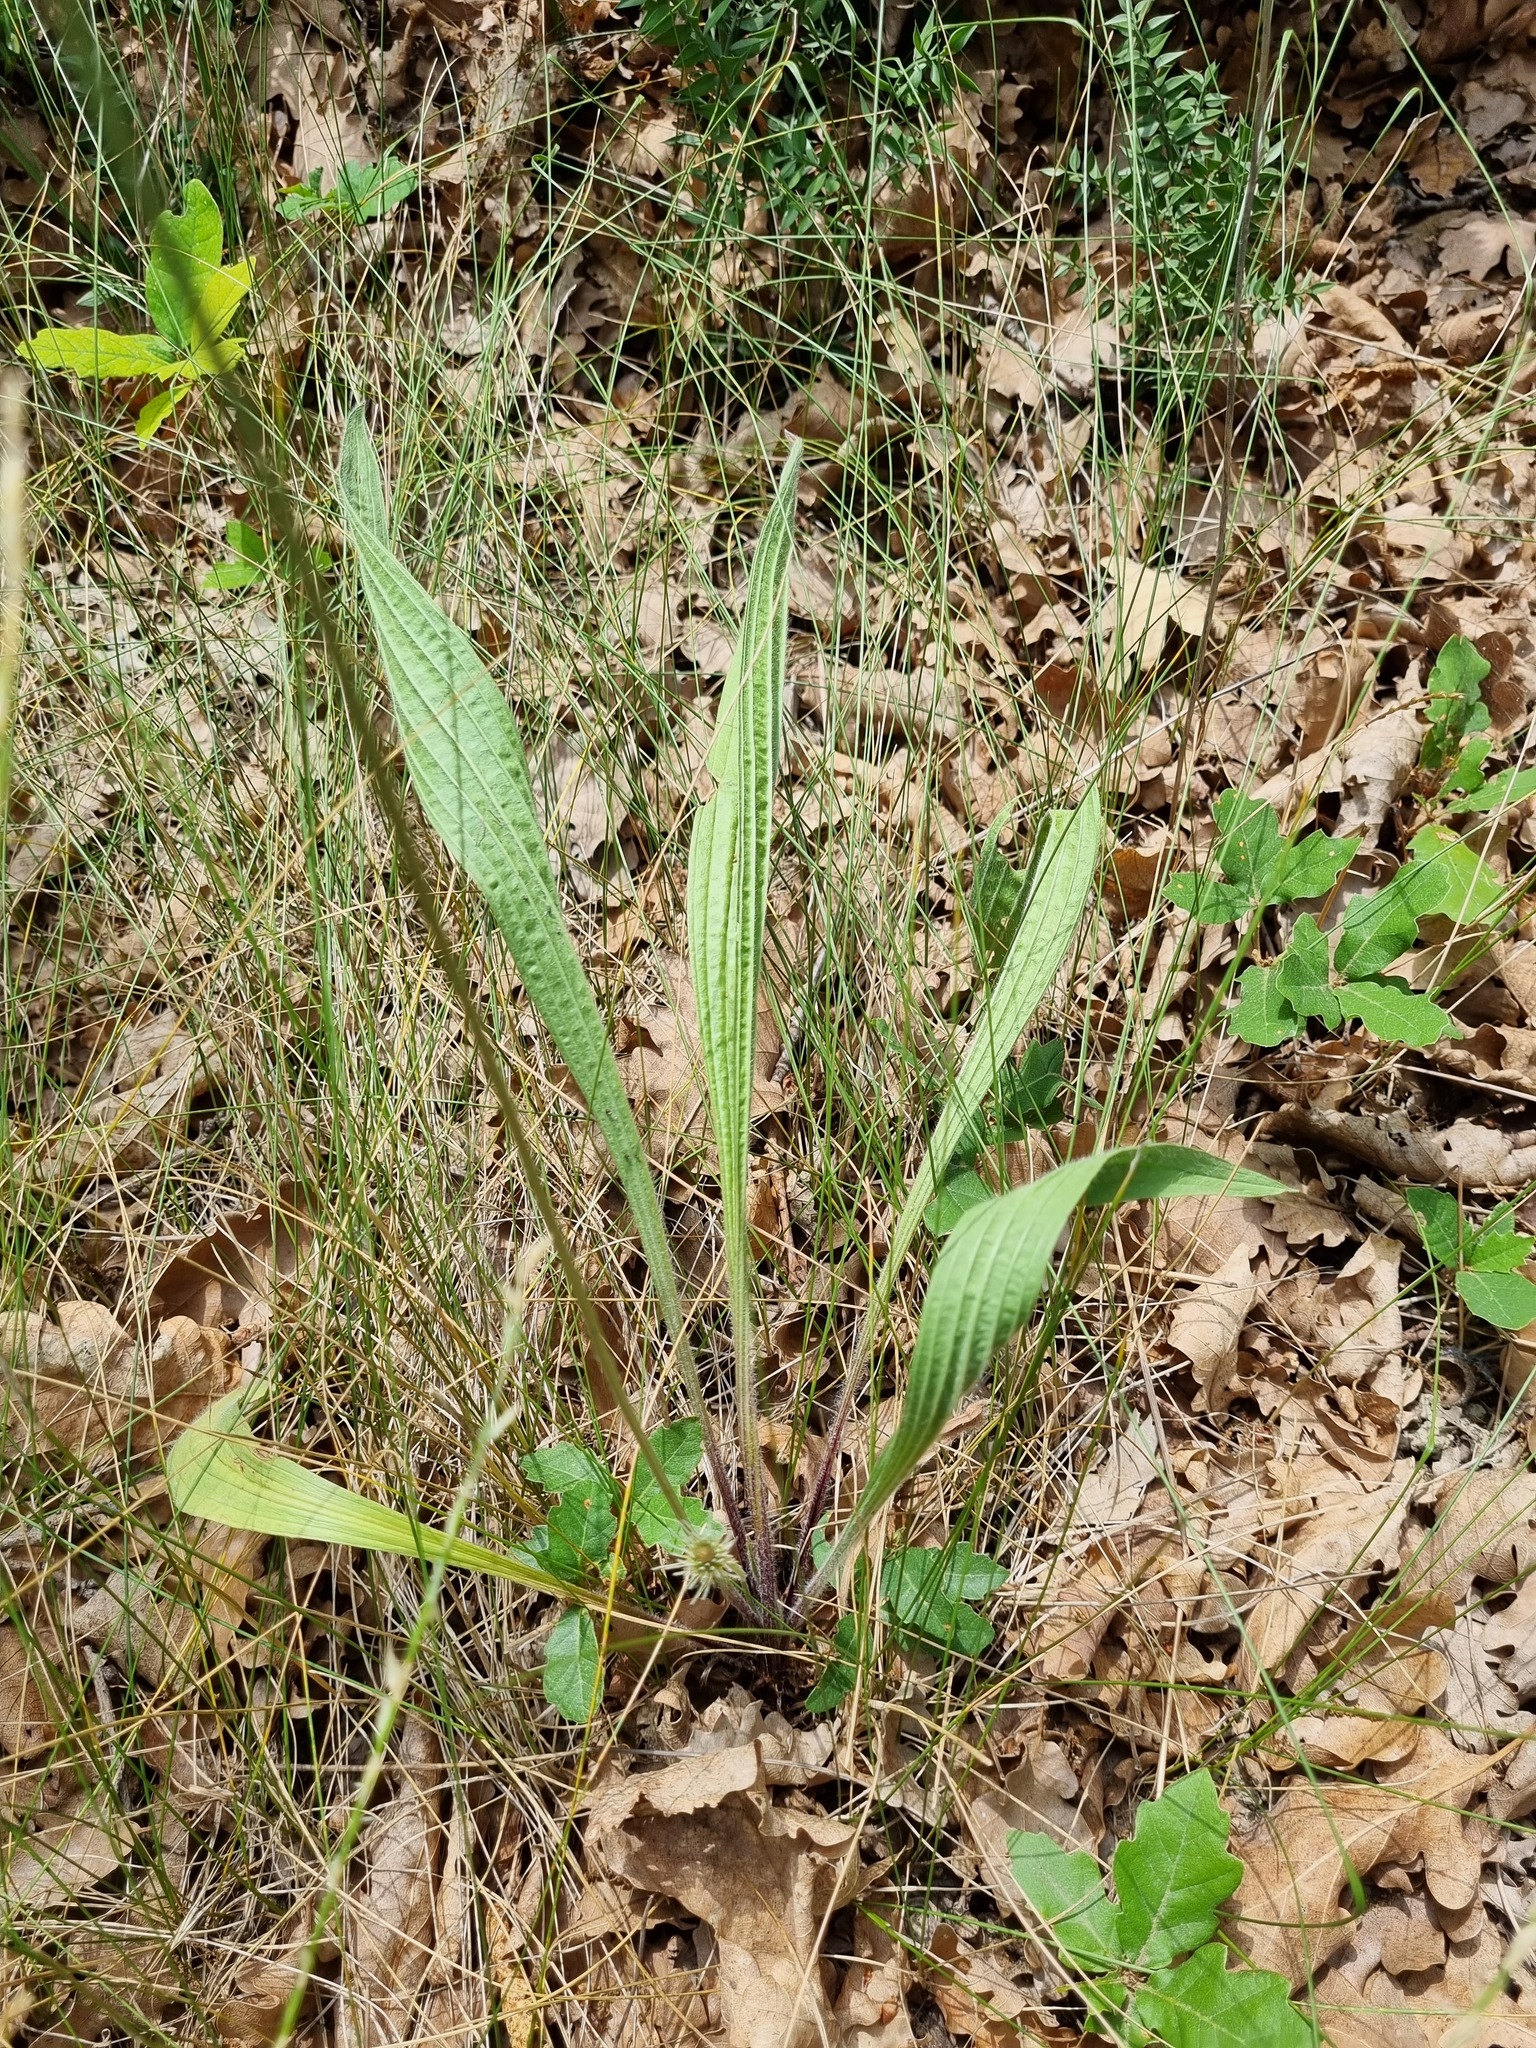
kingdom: Plantae
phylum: Tracheophyta
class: Magnoliopsida
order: Lamiales
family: Plantaginaceae
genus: Plantago
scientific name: Plantago lanceolata
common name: Ribwort plantain
